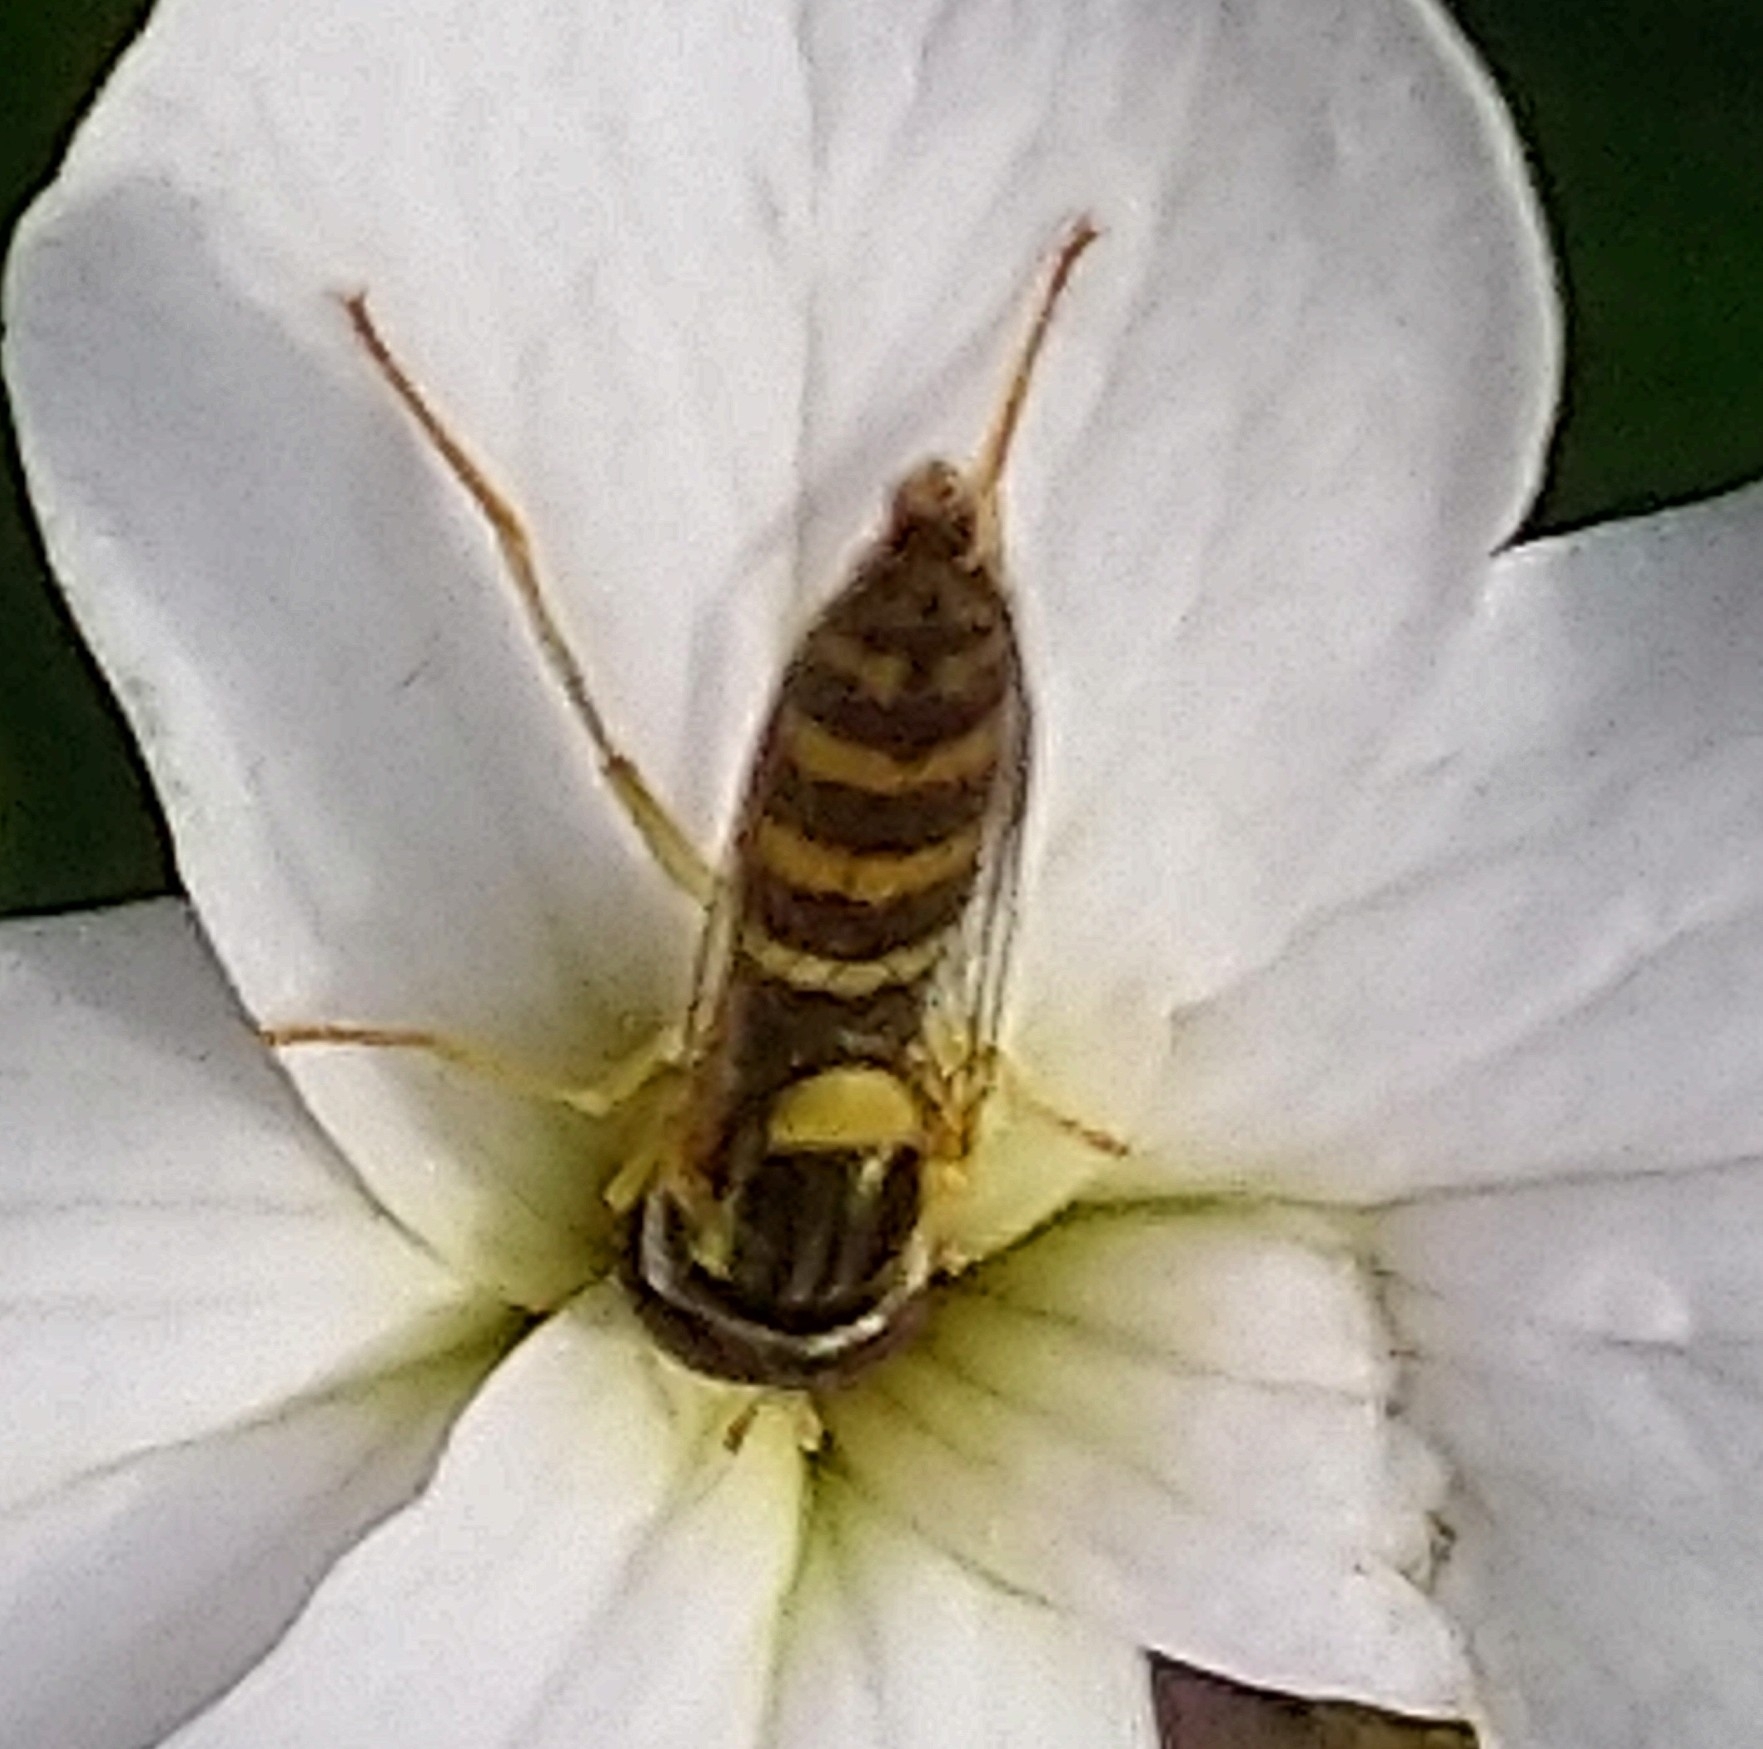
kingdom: Animalia
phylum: Arthropoda
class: Insecta
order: Diptera
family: Syrphidae
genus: Sphaerophoria
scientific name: Sphaerophoria scripta
